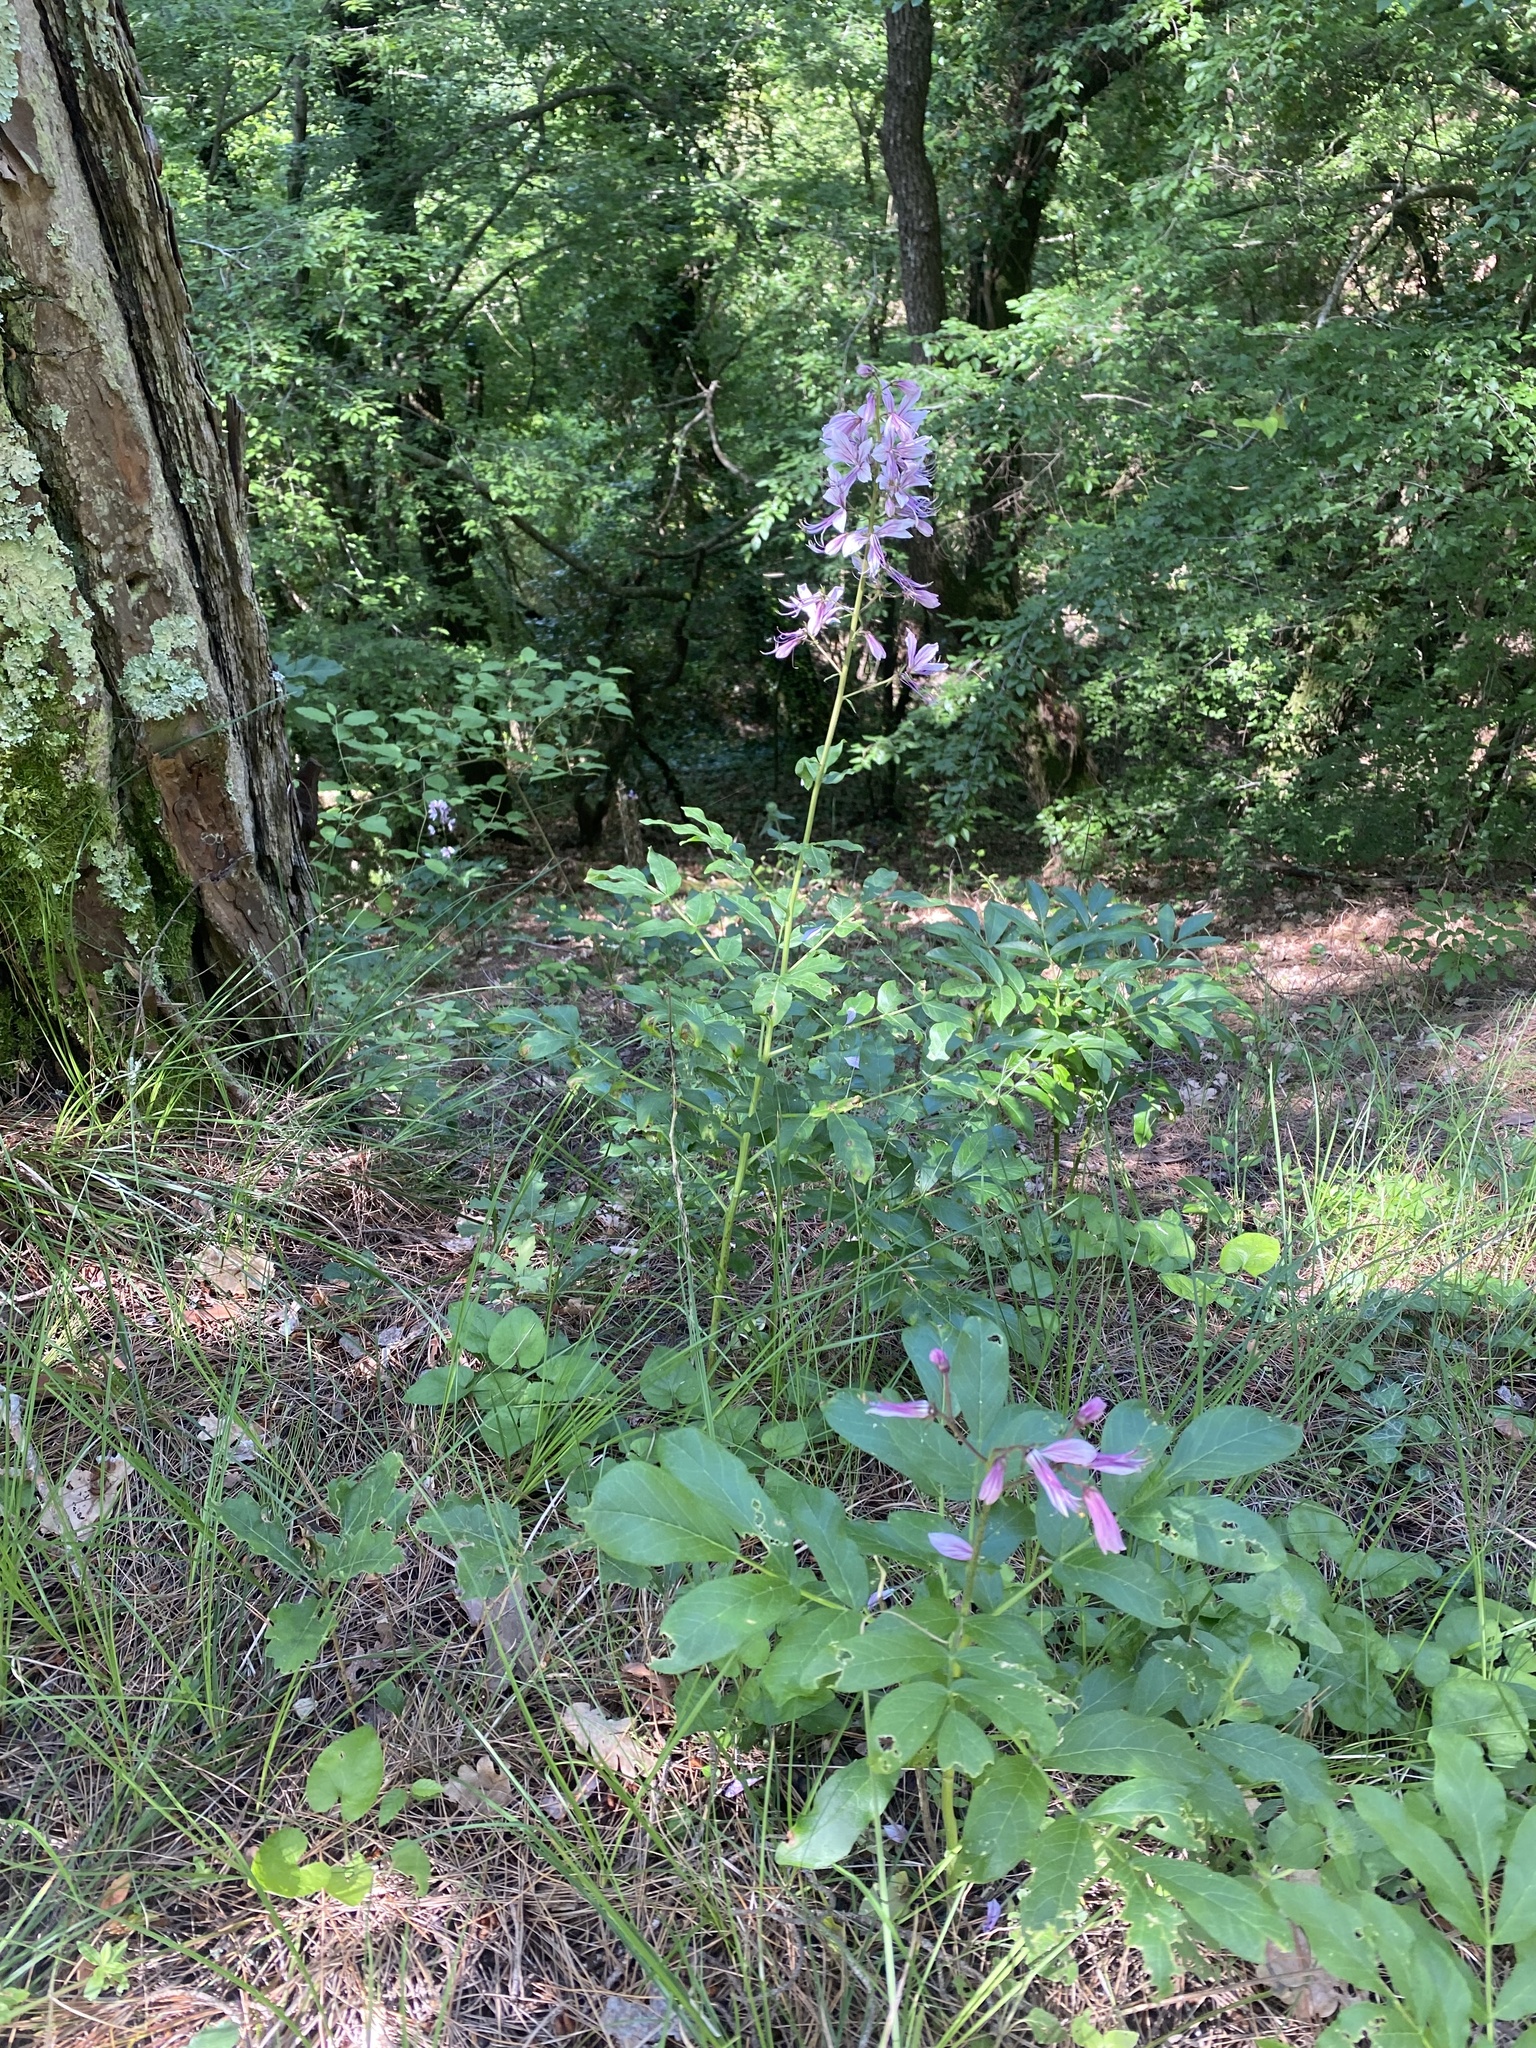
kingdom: Plantae
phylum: Tracheophyta
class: Magnoliopsida
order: Sapindales
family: Rutaceae
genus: Dictamnus
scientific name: Dictamnus albus
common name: Gasplant
